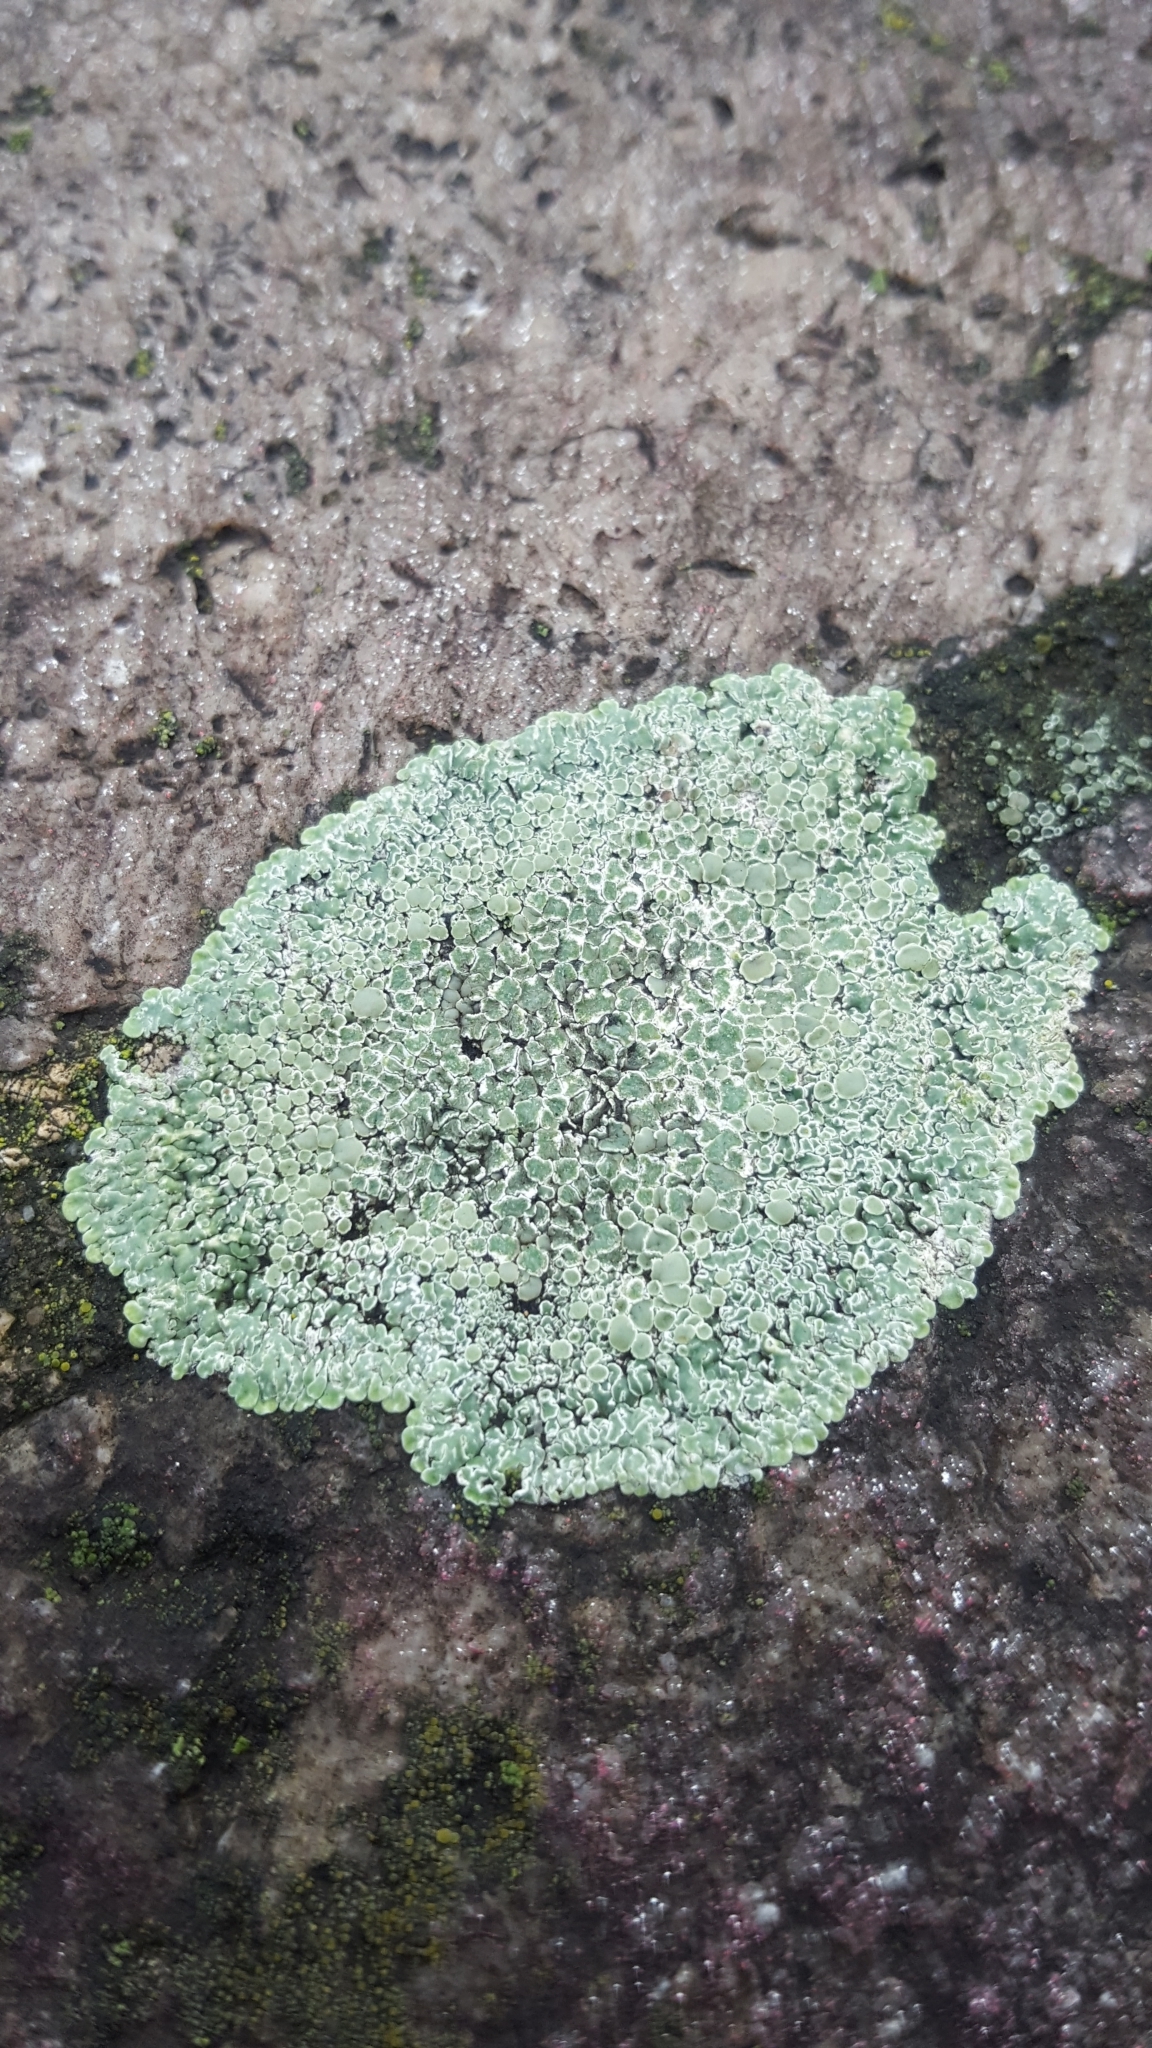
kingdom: Fungi
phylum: Ascomycota
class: Lecanoromycetes
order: Lecanorales
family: Lecanoraceae
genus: Protoparmeliopsis
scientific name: Protoparmeliopsis muralis
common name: Stonewall rim lichen
